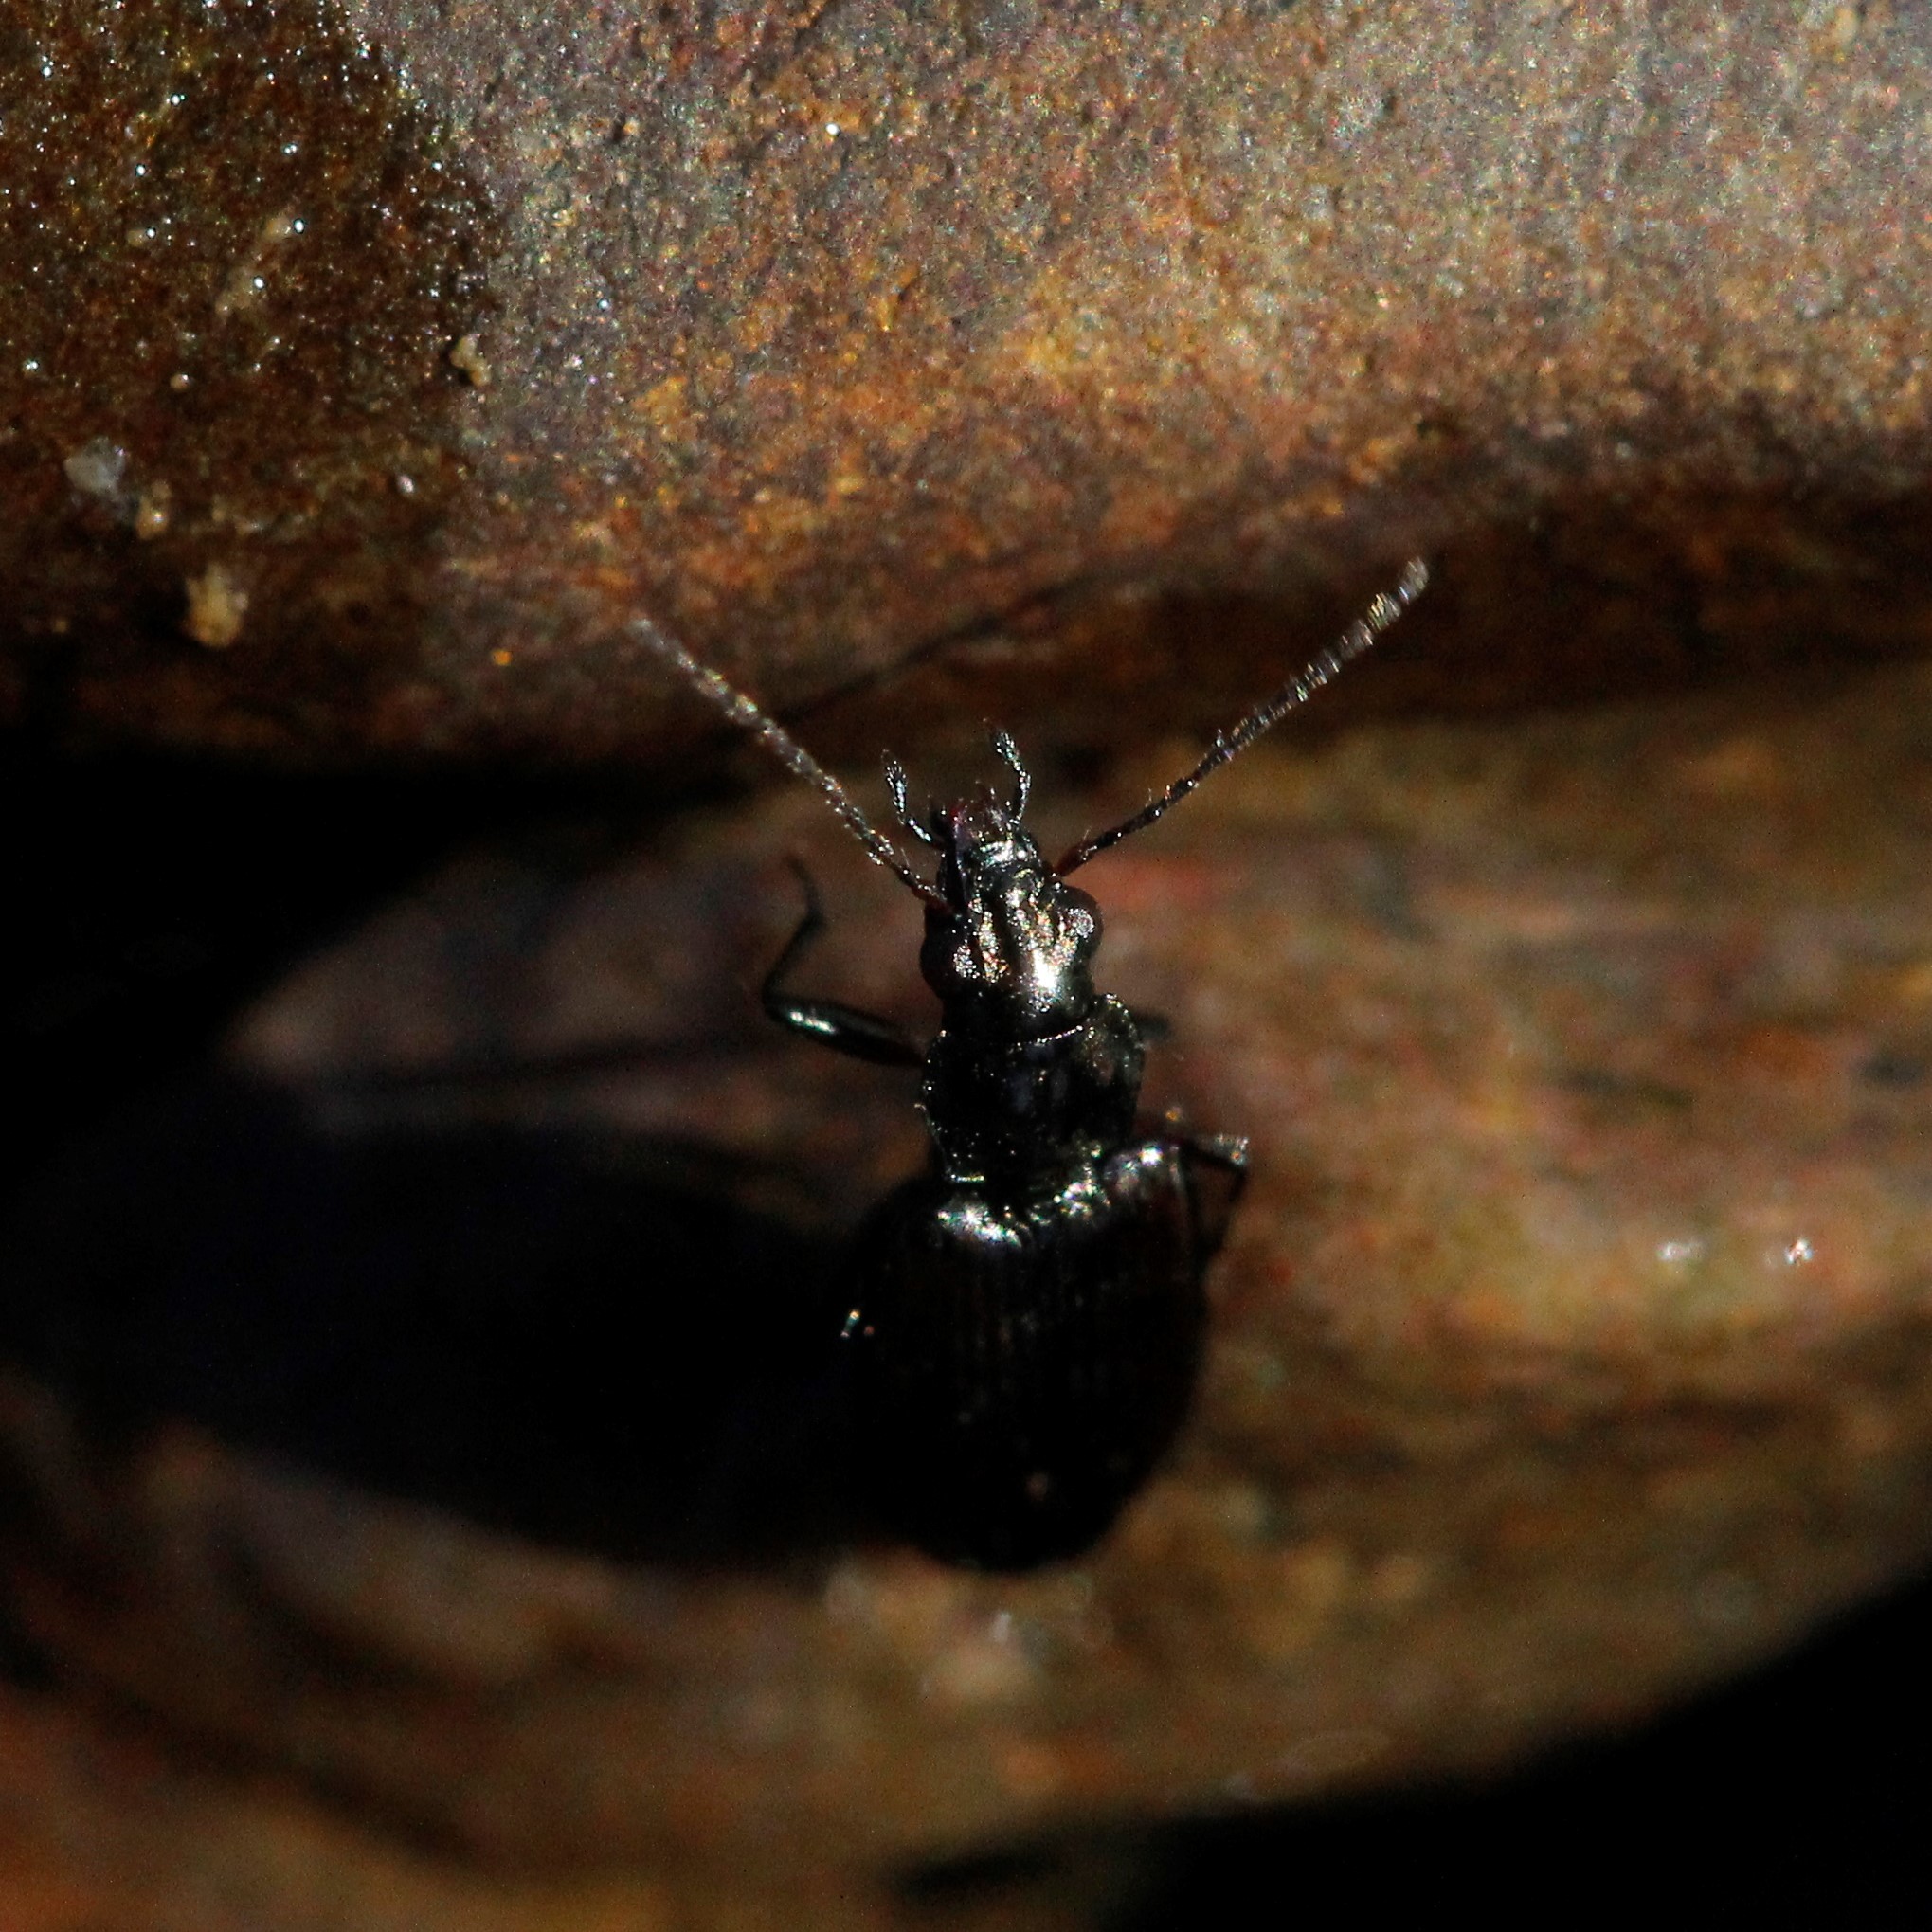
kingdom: Animalia
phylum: Arthropoda
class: Insecta
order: Coleoptera
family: Carabidae
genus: Bembidion
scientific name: Bembidion crenulatum
